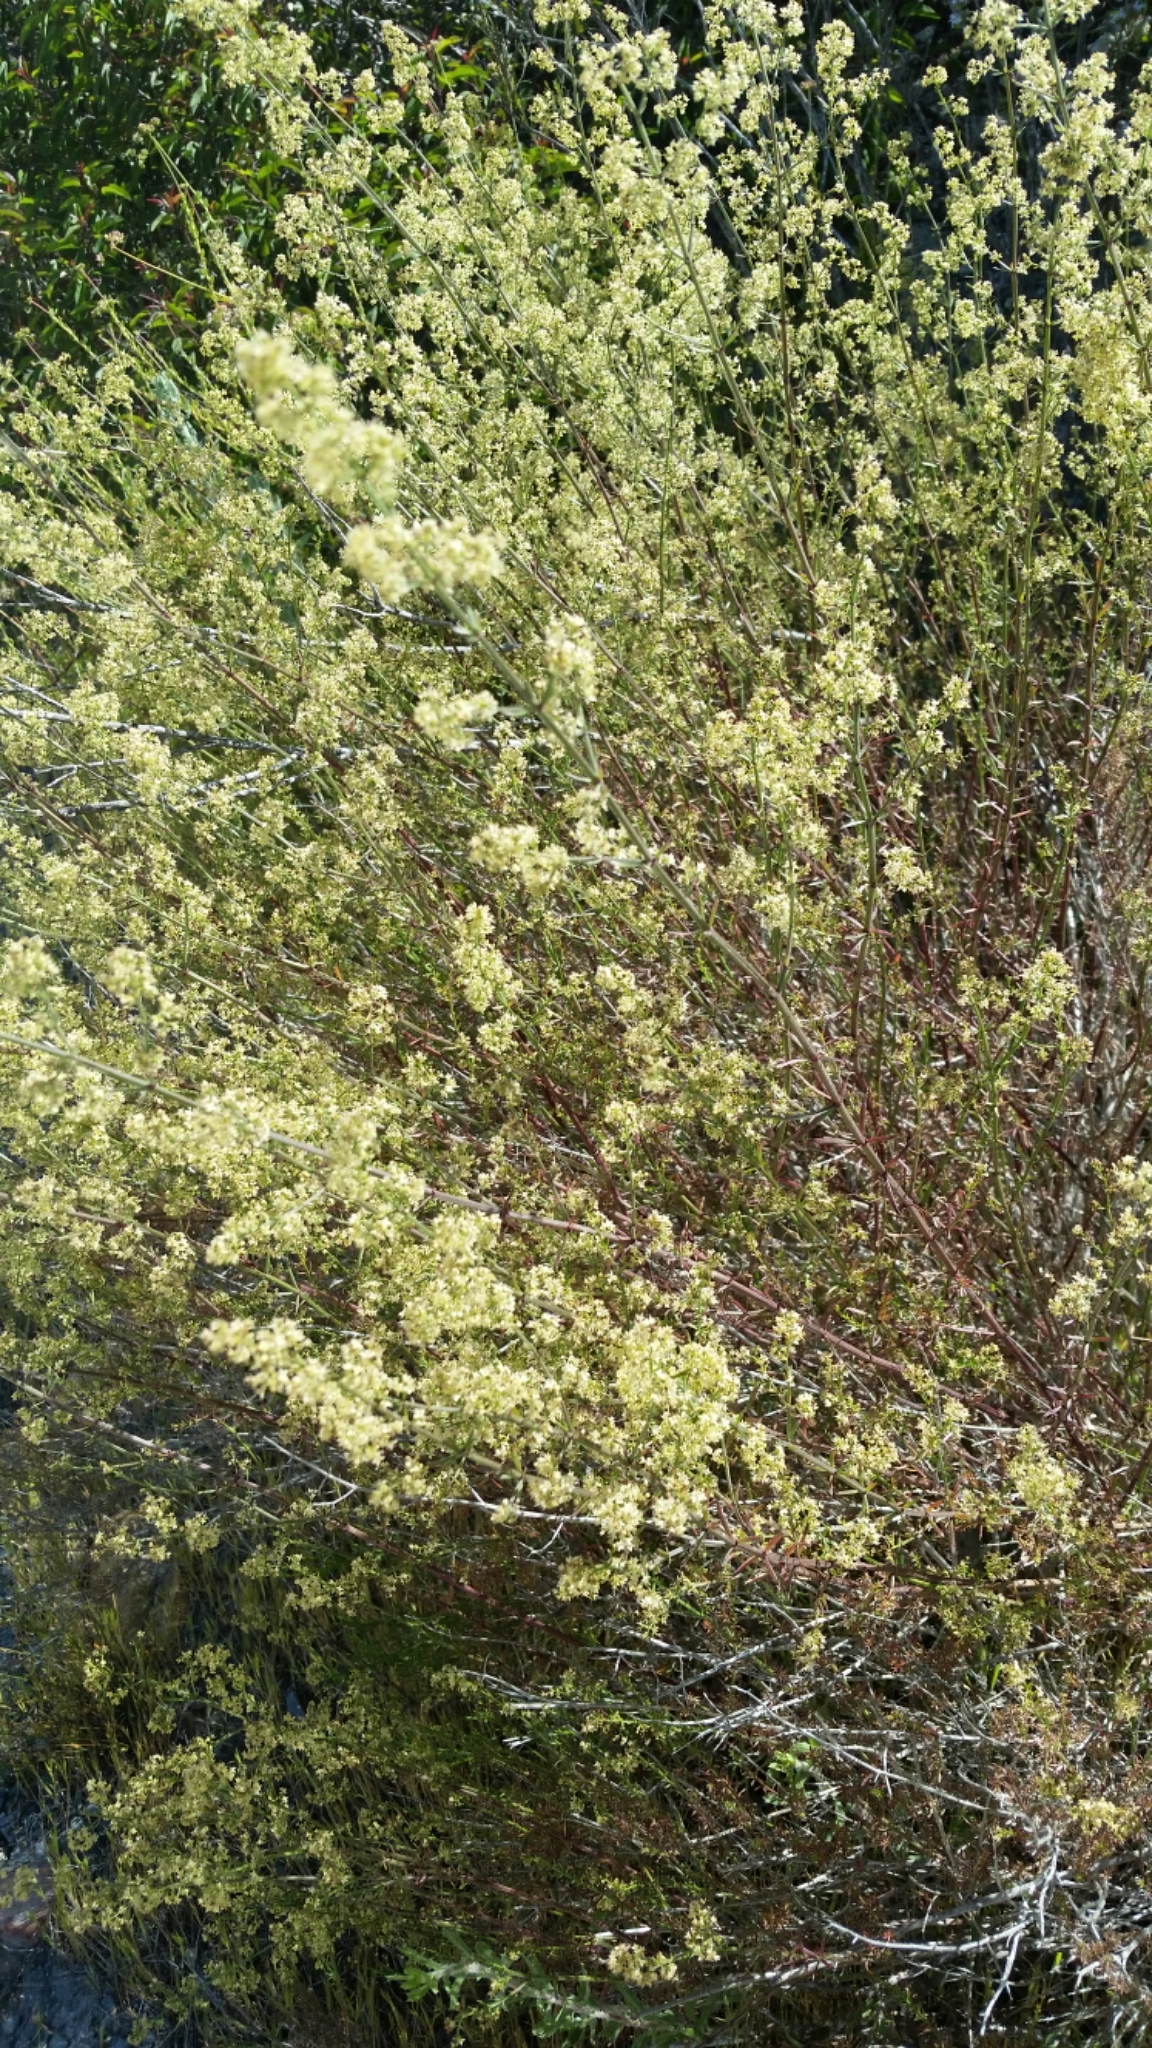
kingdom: Plantae
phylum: Tracheophyta
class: Magnoliopsida
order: Gentianales
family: Rubiaceae
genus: Galium
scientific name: Galium angustifolium
